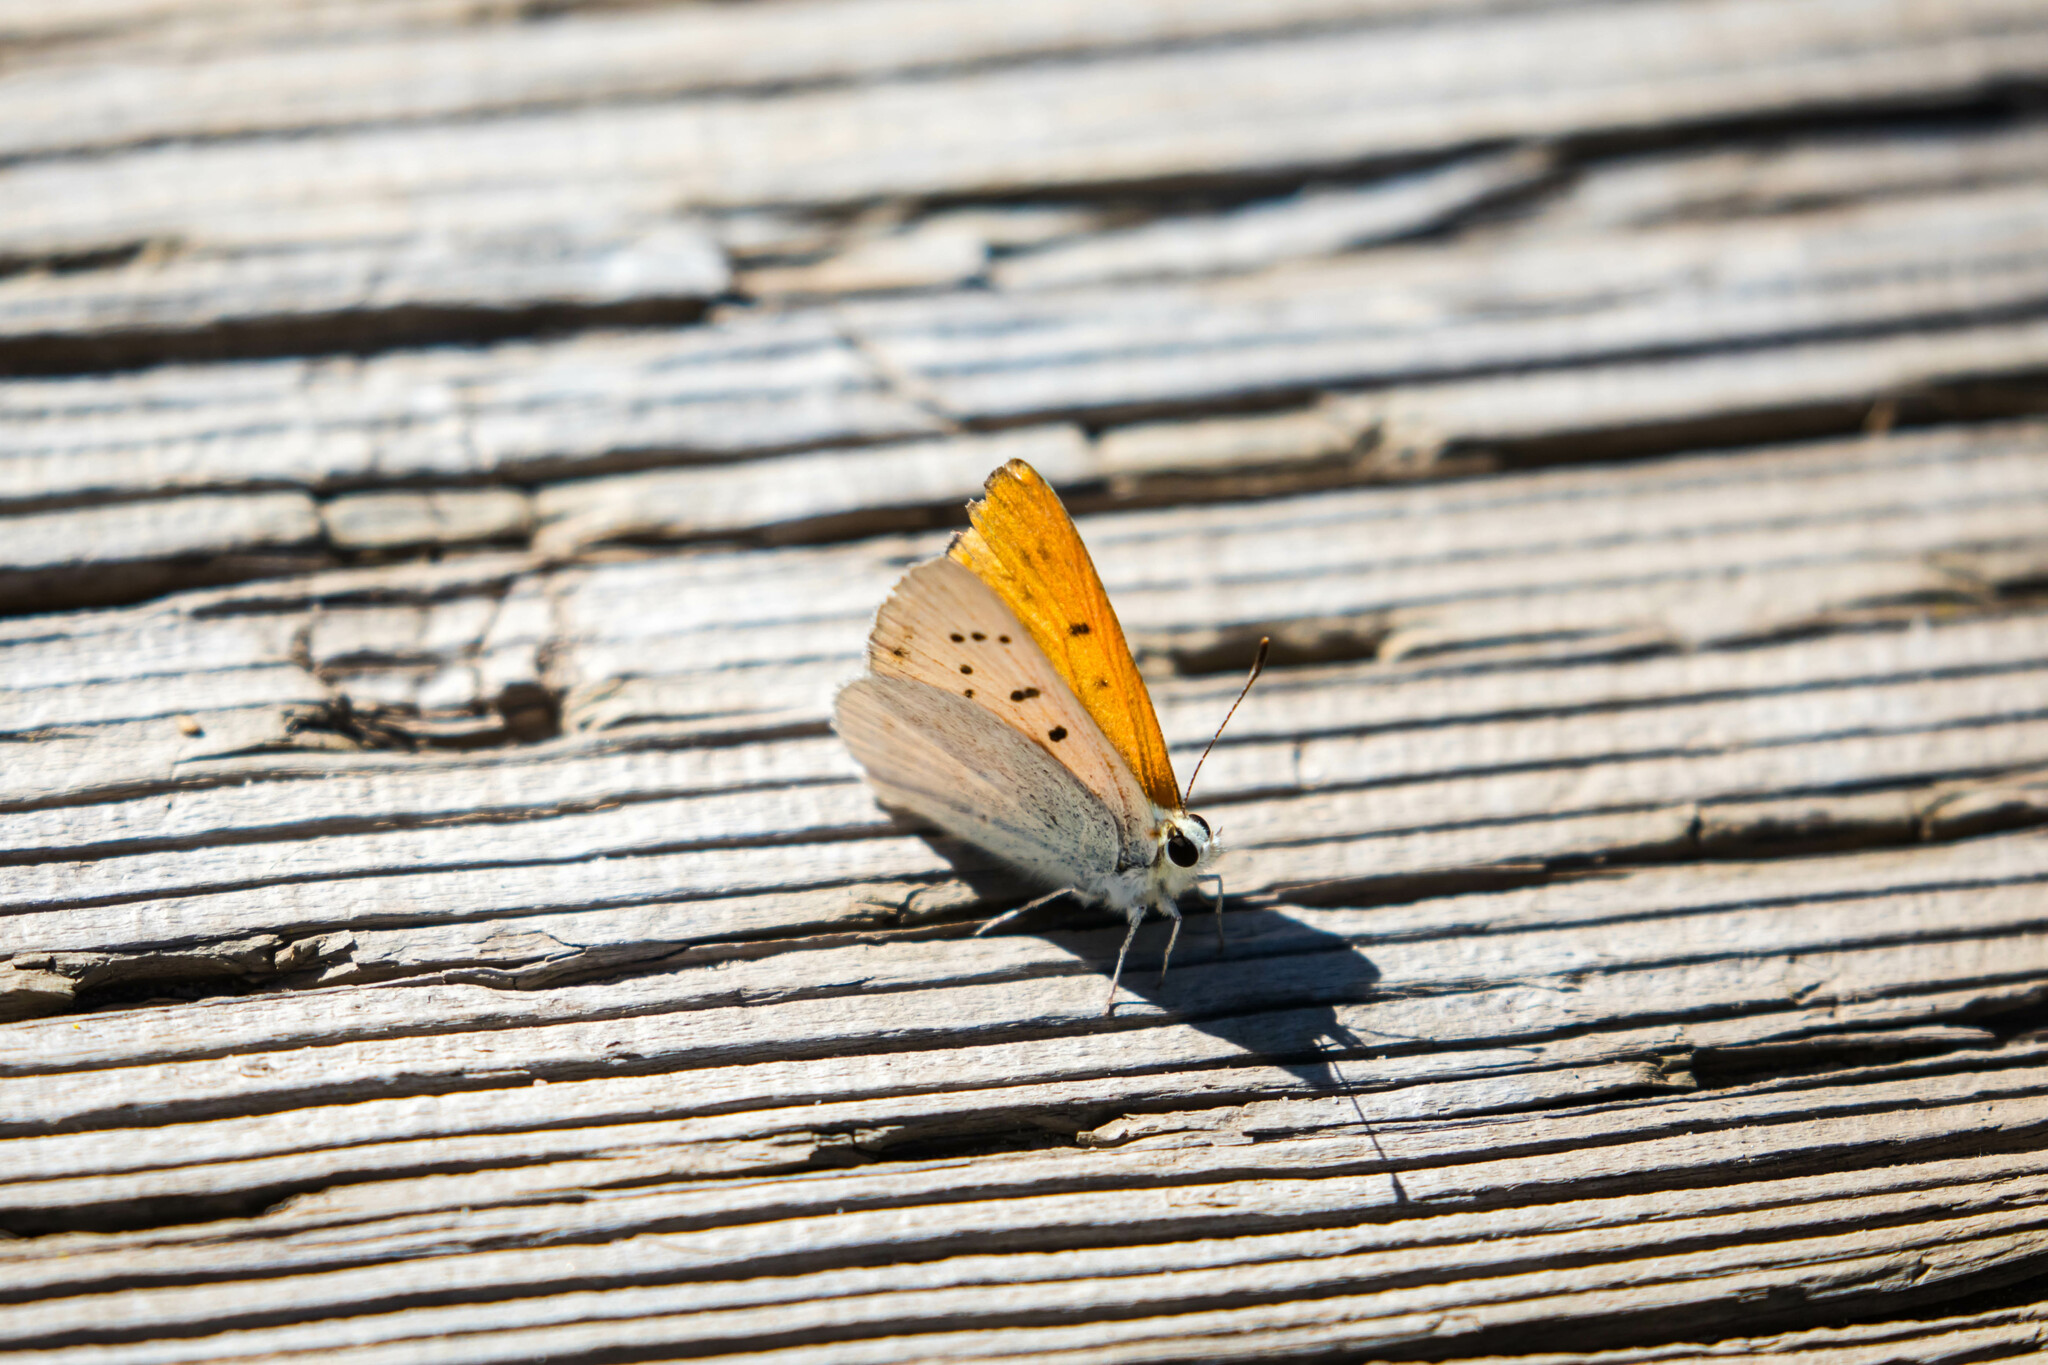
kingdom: Animalia
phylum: Arthropoda
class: Insecta
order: Lepidoptera
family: Lycaenidae
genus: Tharsalea
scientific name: Tharsalea rubidus
